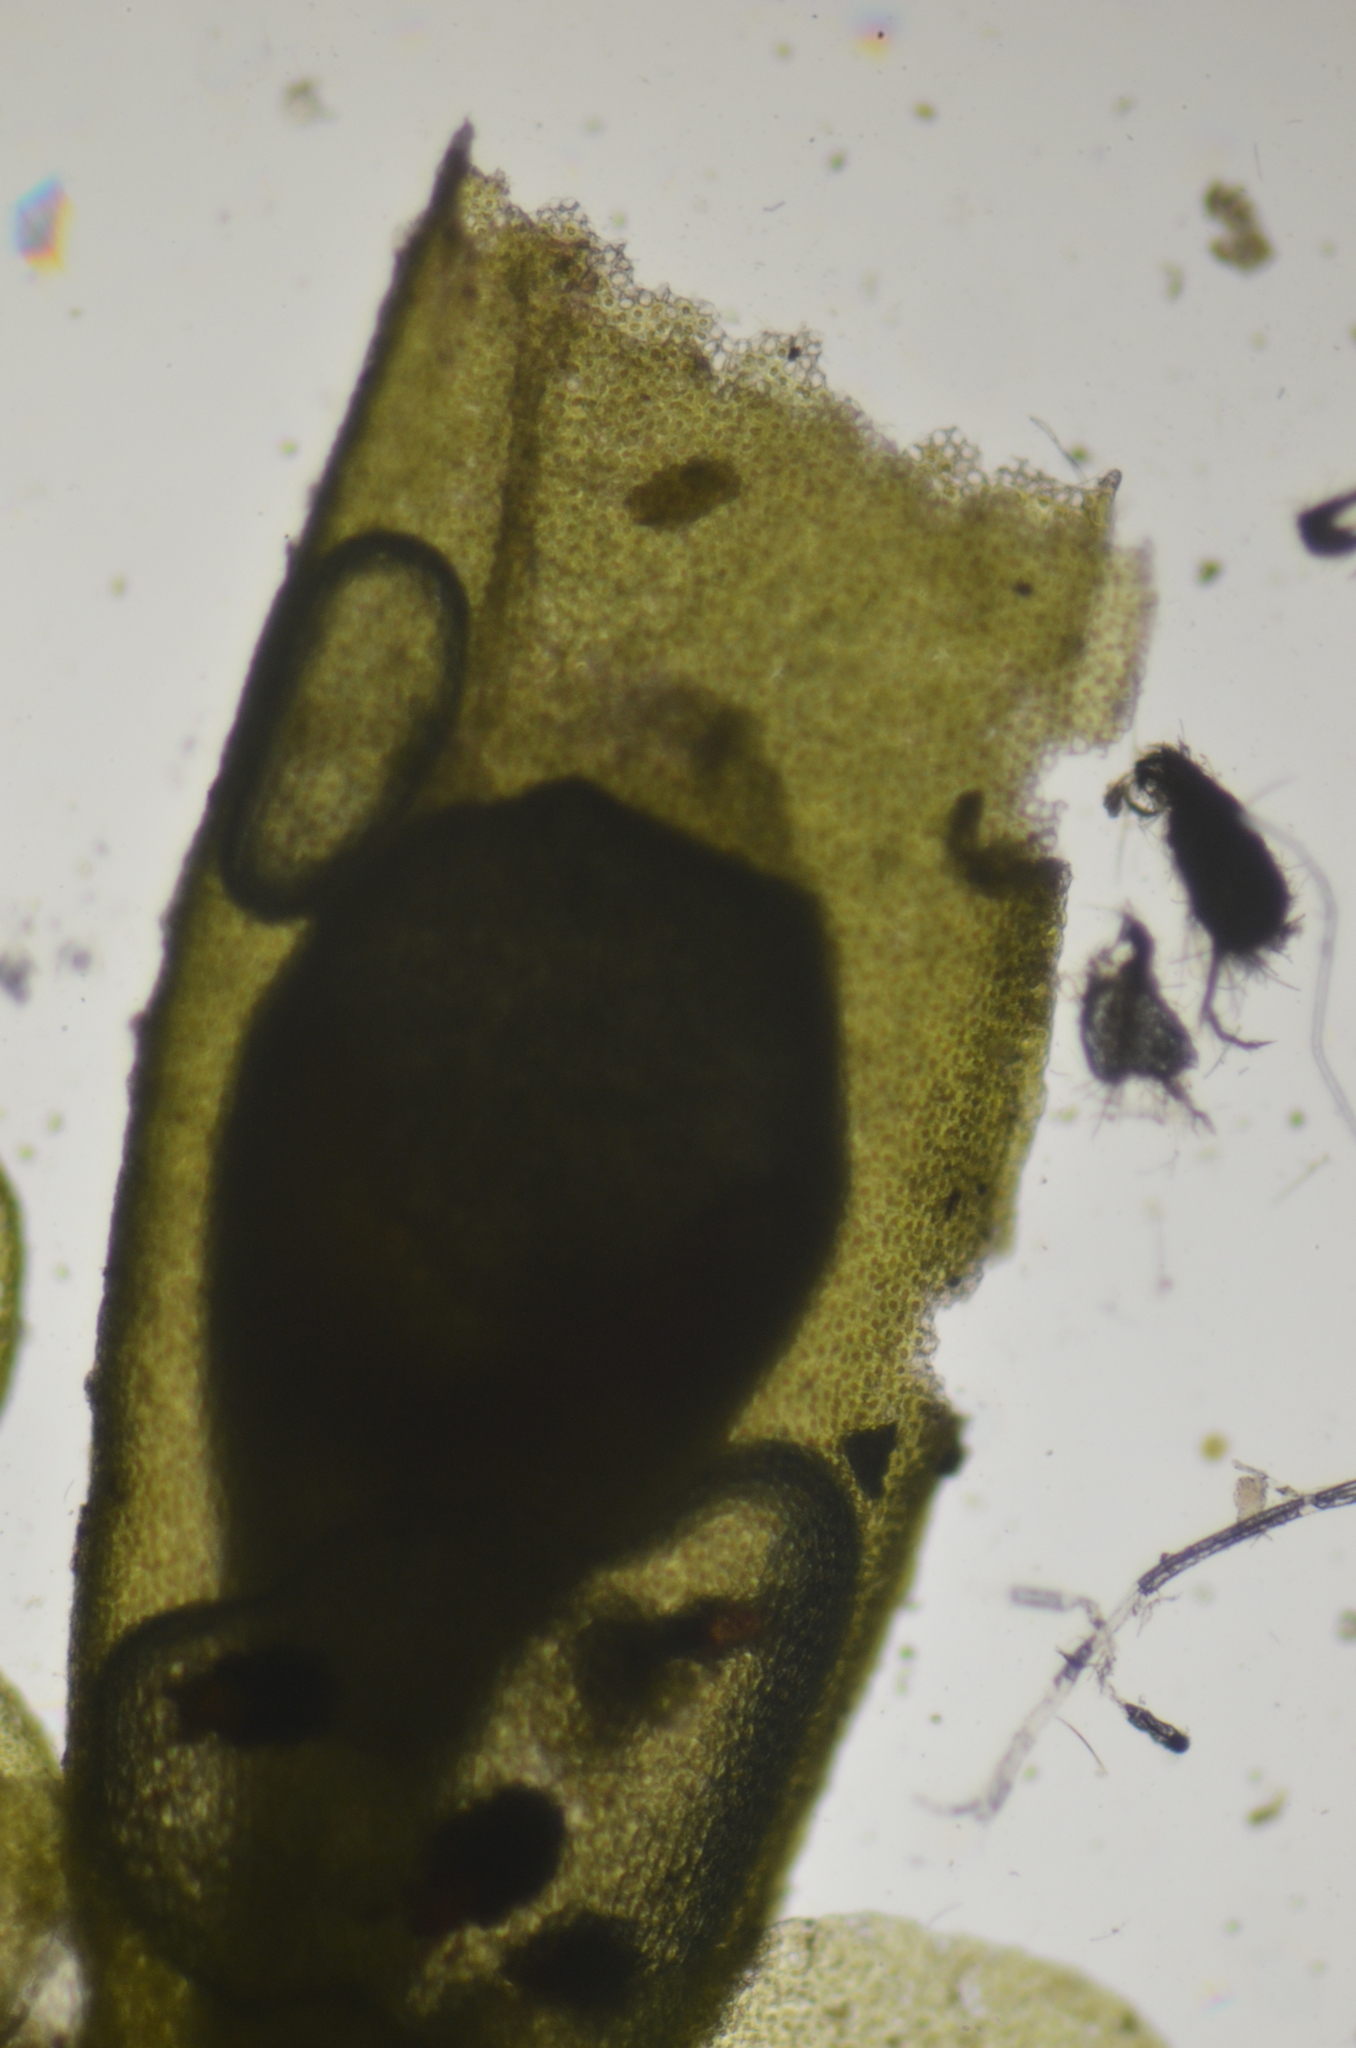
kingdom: Plantae
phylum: Marchantiophyta
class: Jungermanniopsida
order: Porellales
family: Radulaceae
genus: Radula
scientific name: Radula complanata
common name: Flat-leaved scalewort
